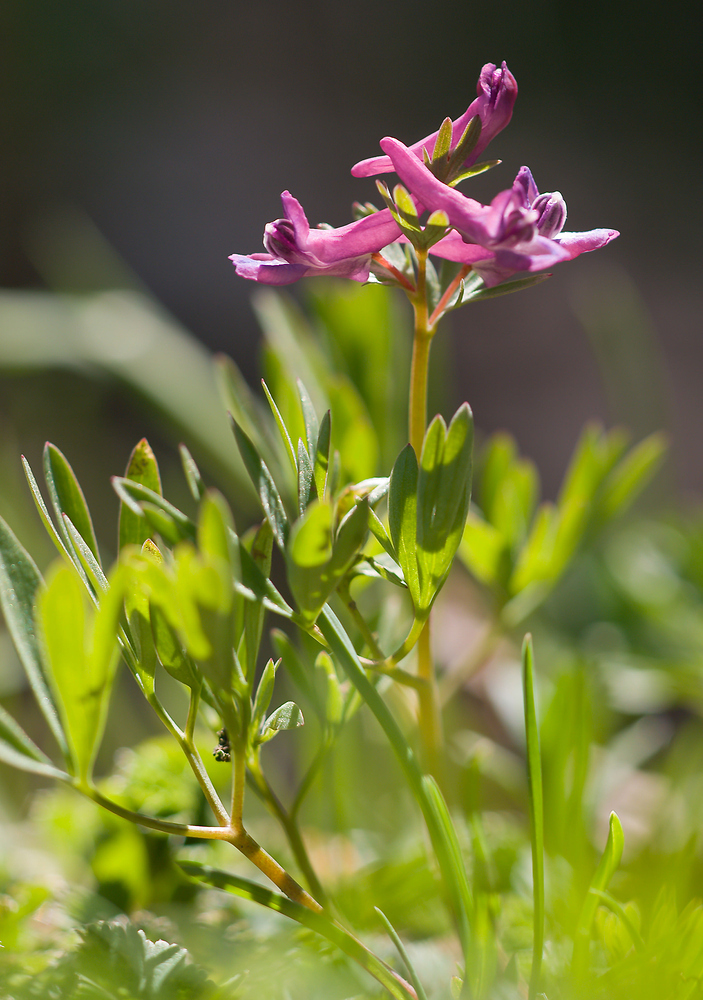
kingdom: Plantae
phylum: Tracheophyta
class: Magnoliopsida
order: Ranunculales
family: Papaveraceae
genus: Corydalis
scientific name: Corydalis solida
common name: Bird-in-a-bush
